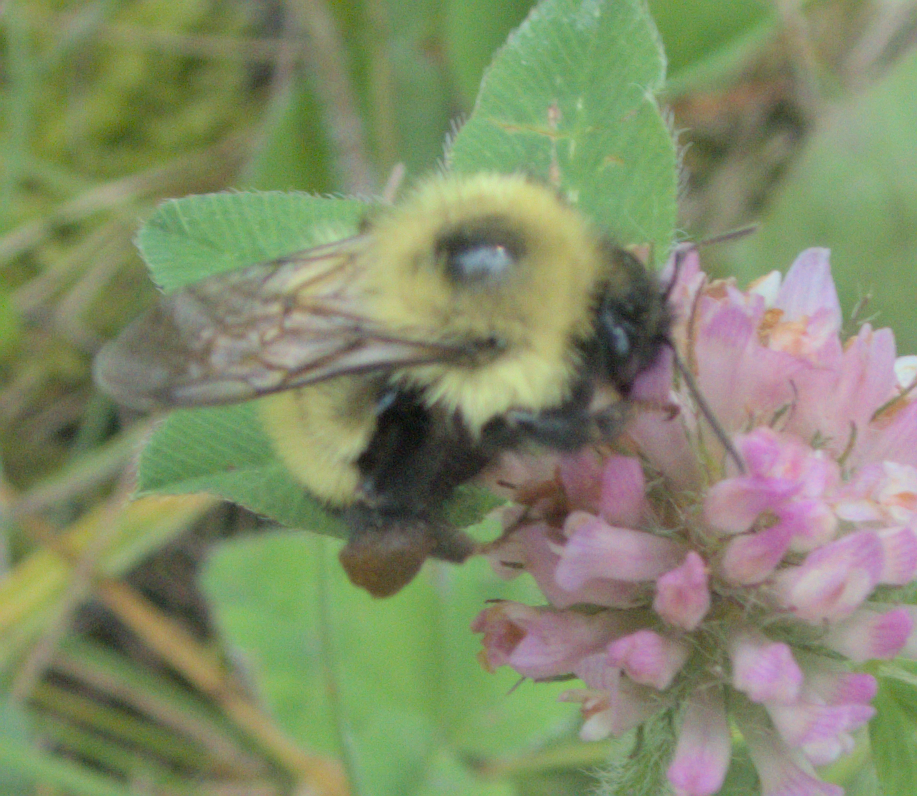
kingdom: Animalia
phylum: Arthropoda
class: Insecta
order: Hymenoptera
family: Apidae
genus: Pyrobombus
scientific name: Pyrobombus
